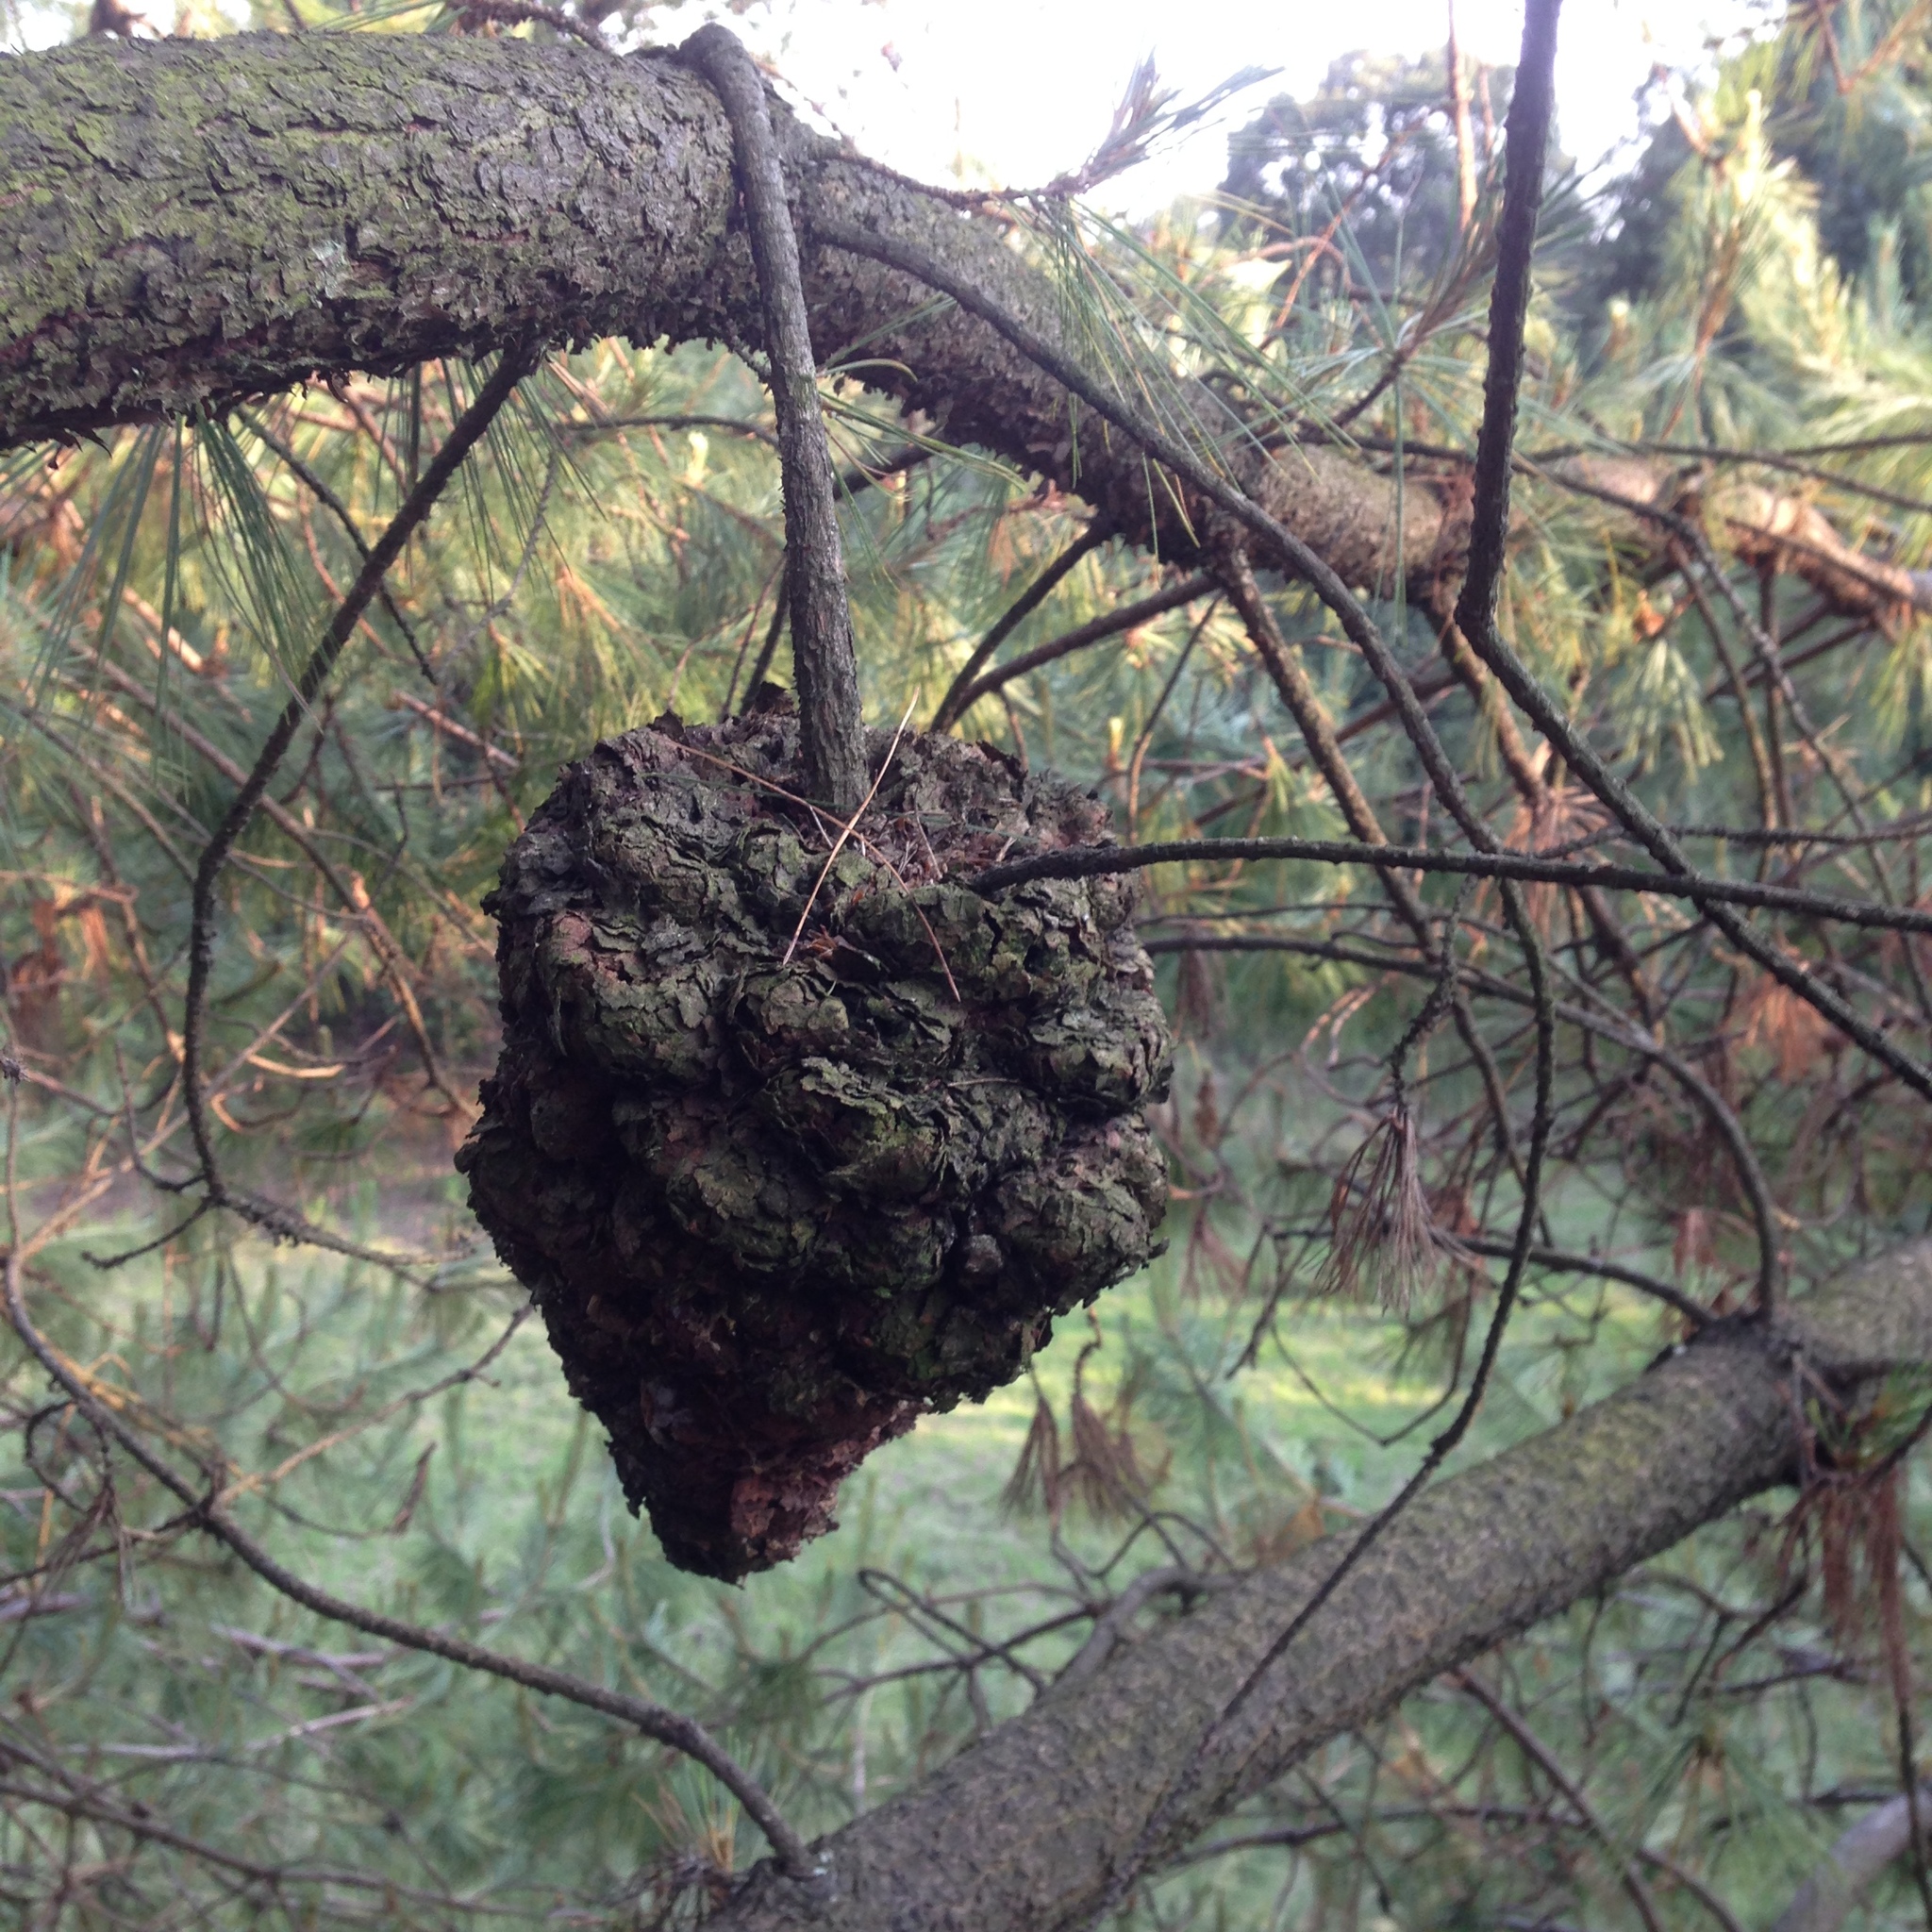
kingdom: Fungi
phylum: Basidiomycota
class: Pucciniomycetes
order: Pucciniales
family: Cronartiaceae
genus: Cronartium
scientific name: Cronartium conigenum
